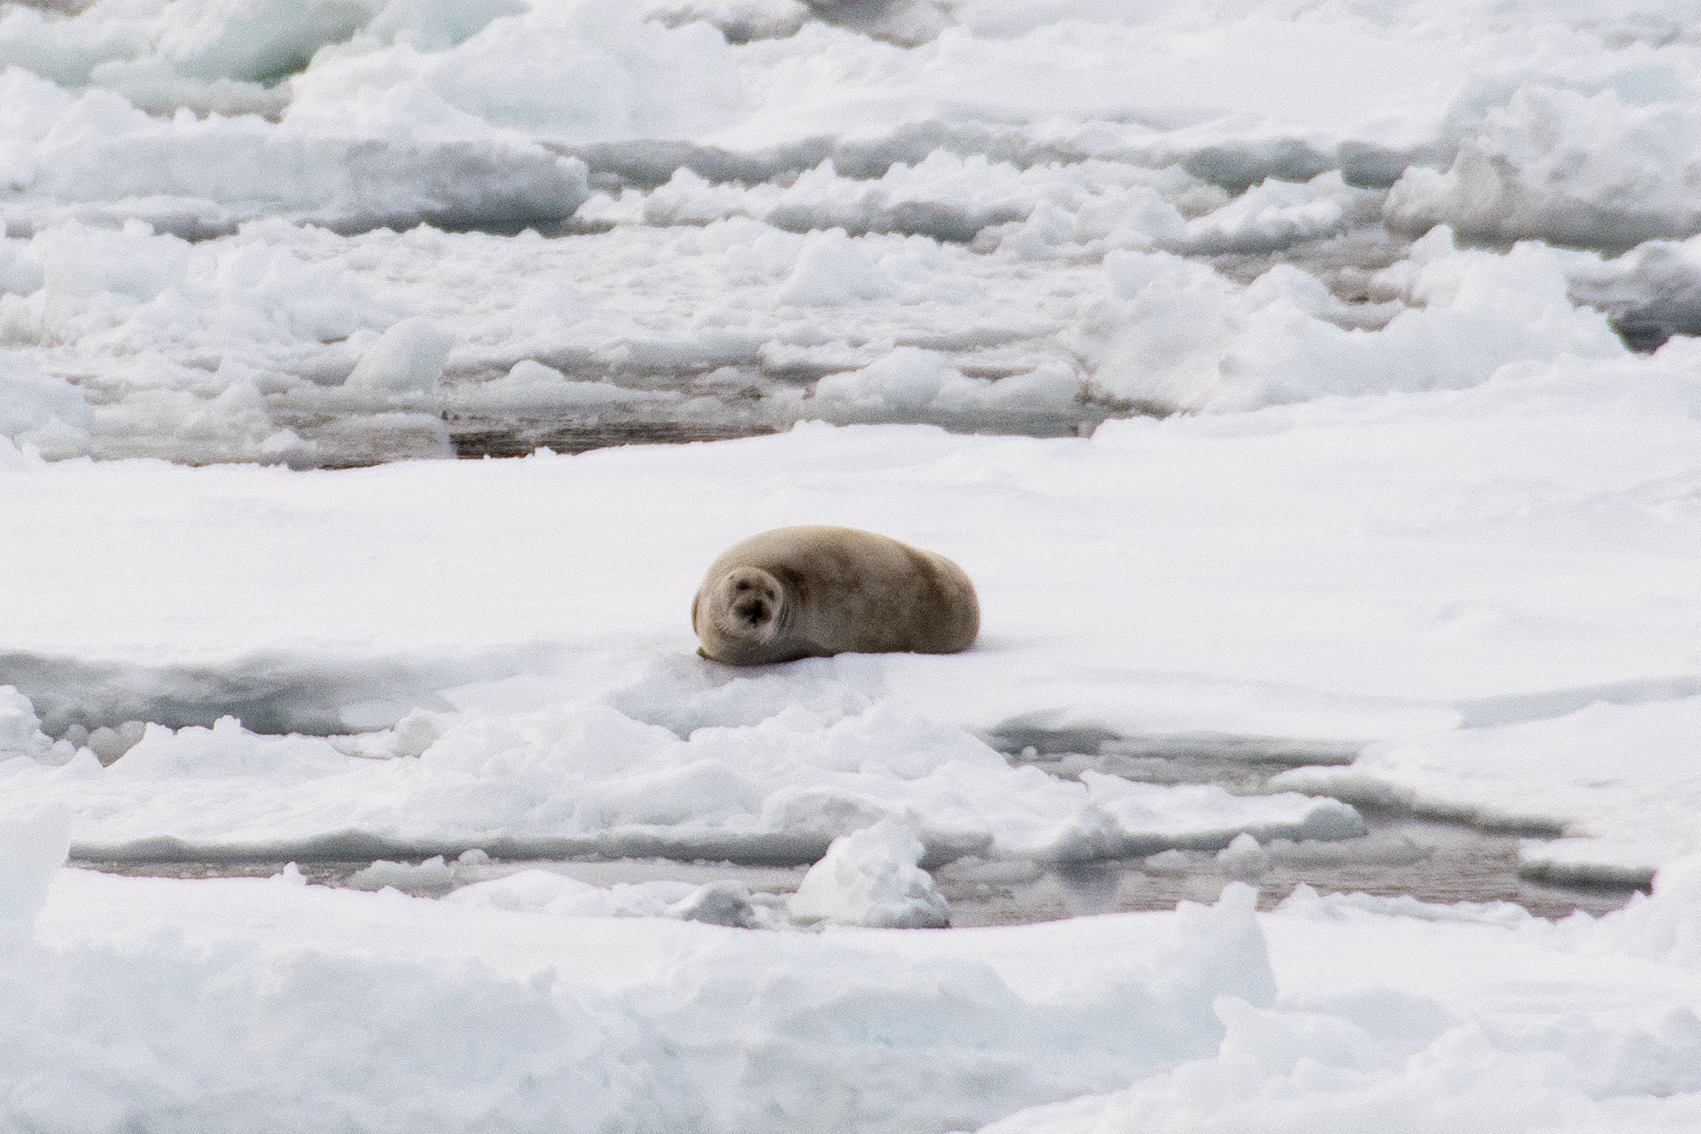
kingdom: Animalia
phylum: Chordata
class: Mammalia
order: Carnivora
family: Phocidae
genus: Erignathus
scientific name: Erignathus barbatus
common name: Bearded seal
